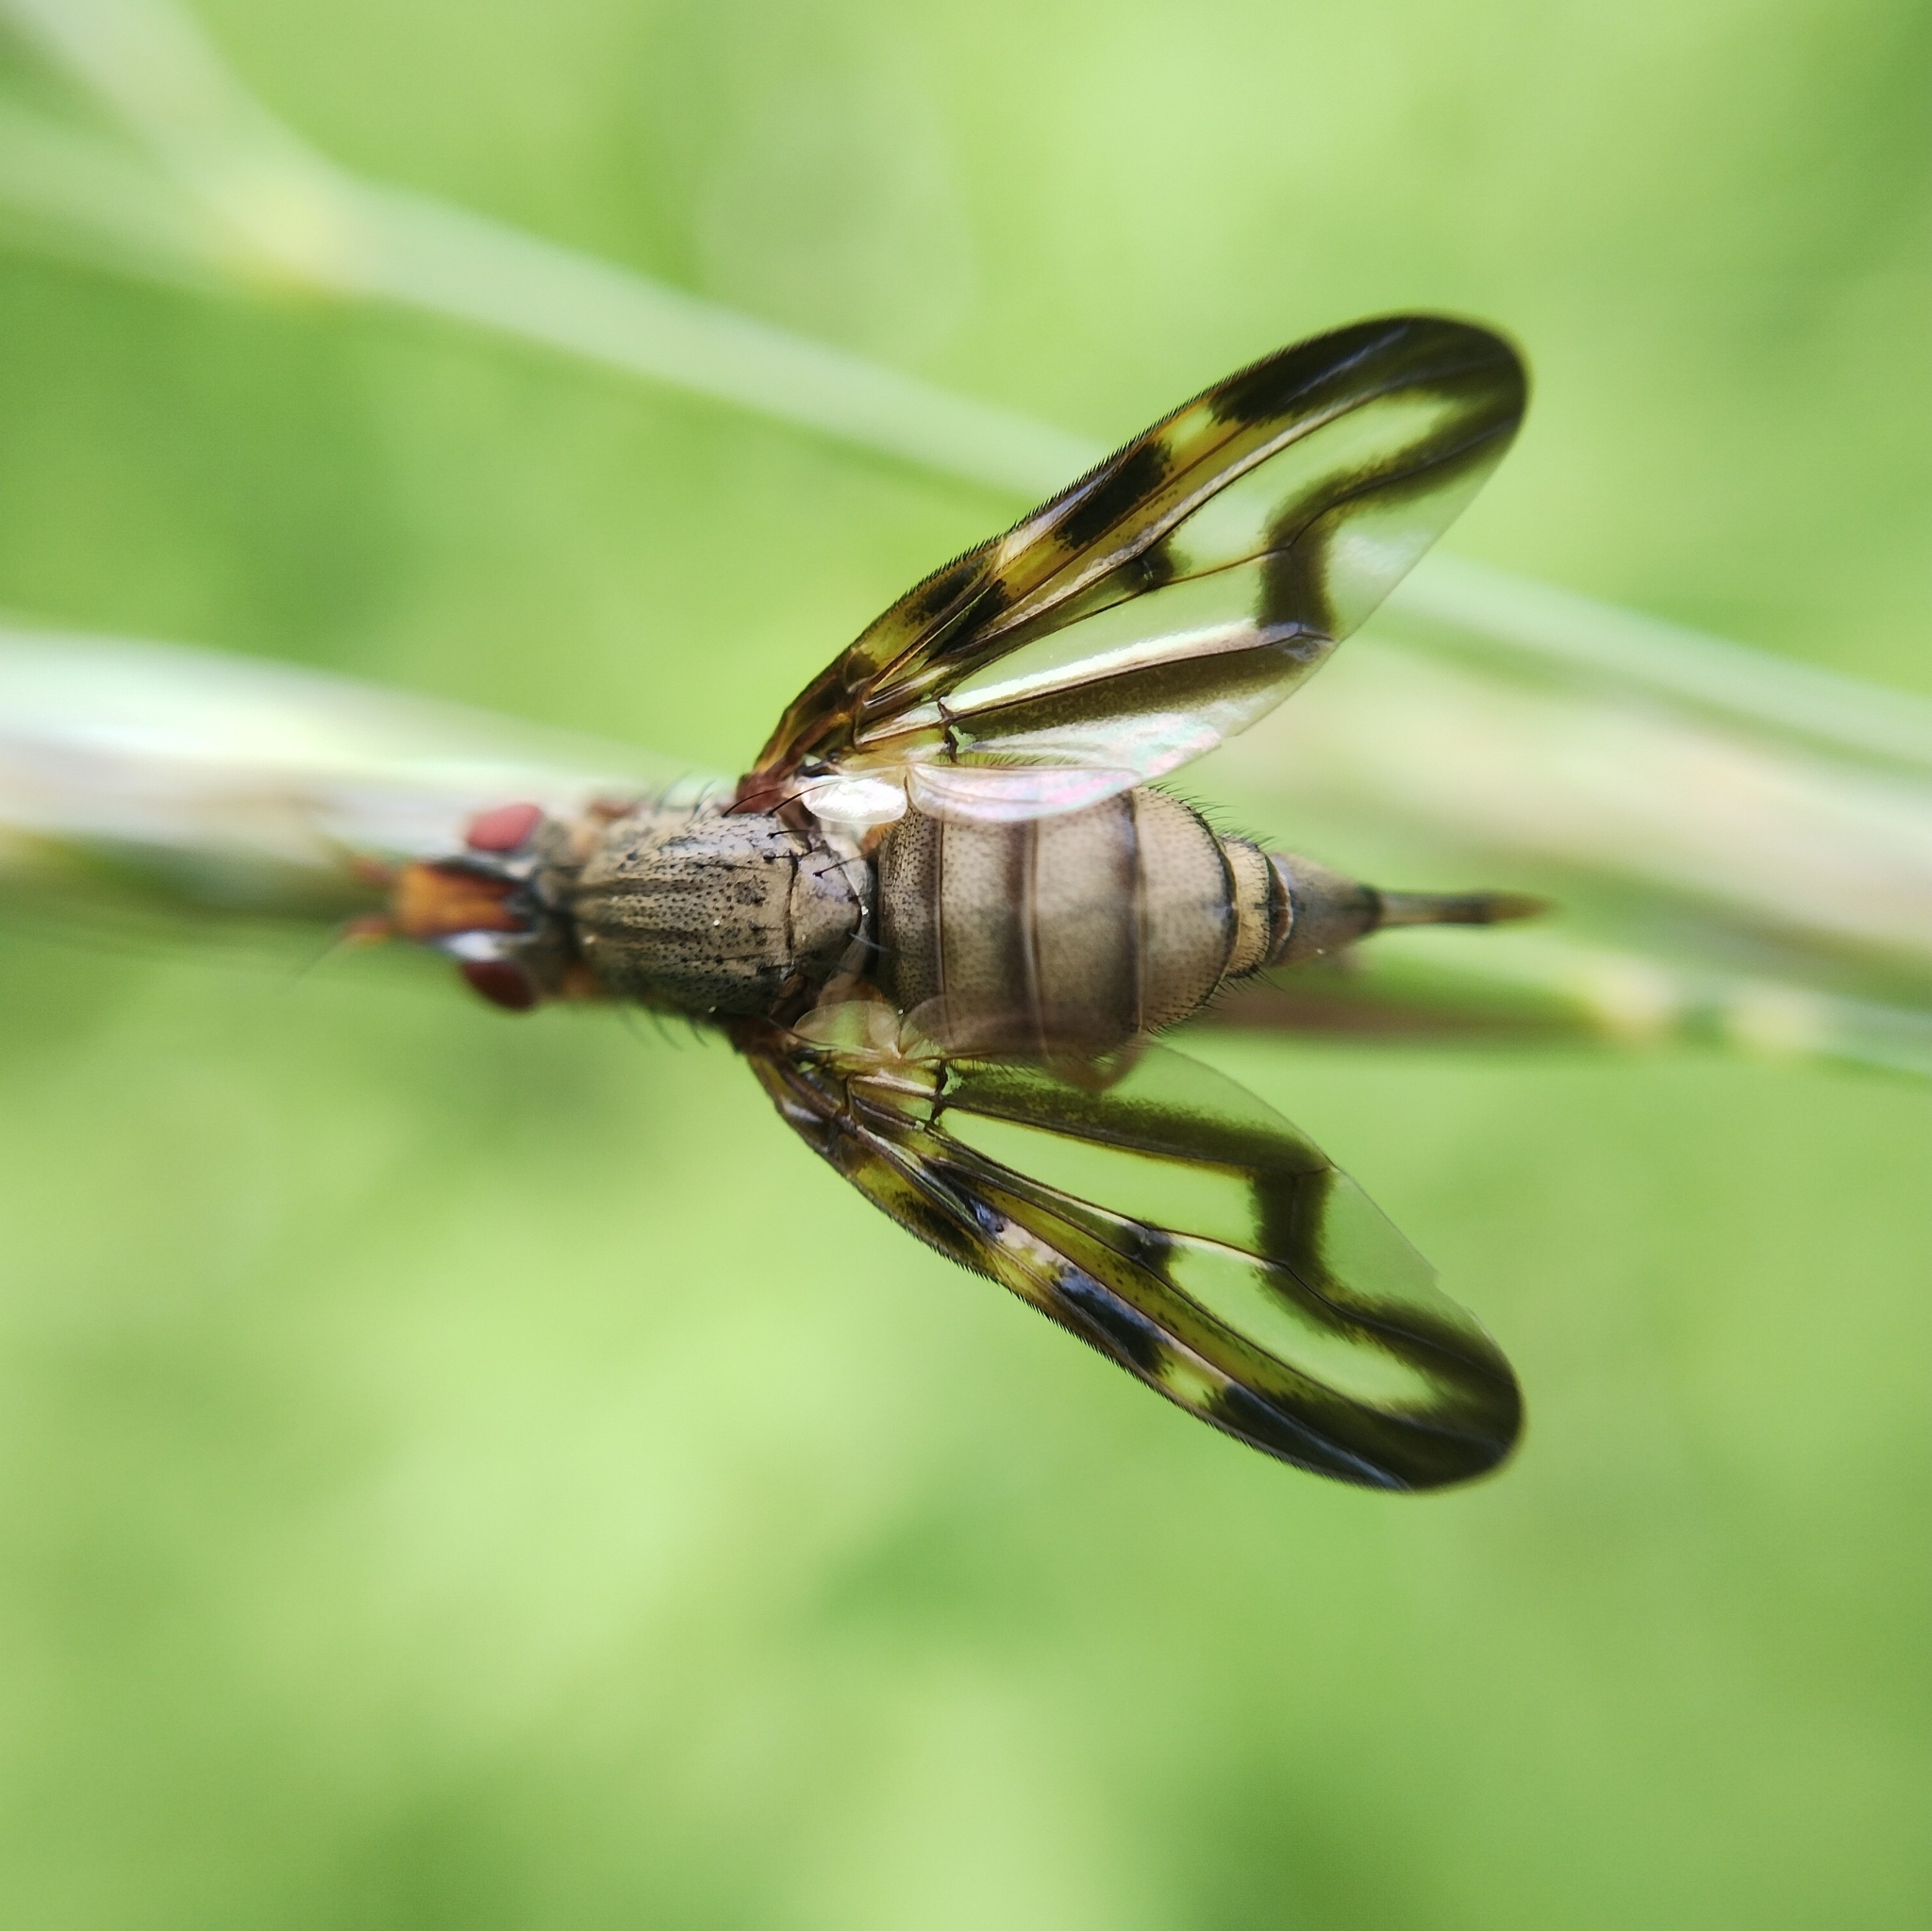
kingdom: Animalia
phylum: Arthropoda
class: Insecta
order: Diptera
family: Ulidiidae
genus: Otites
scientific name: Otites lamed
